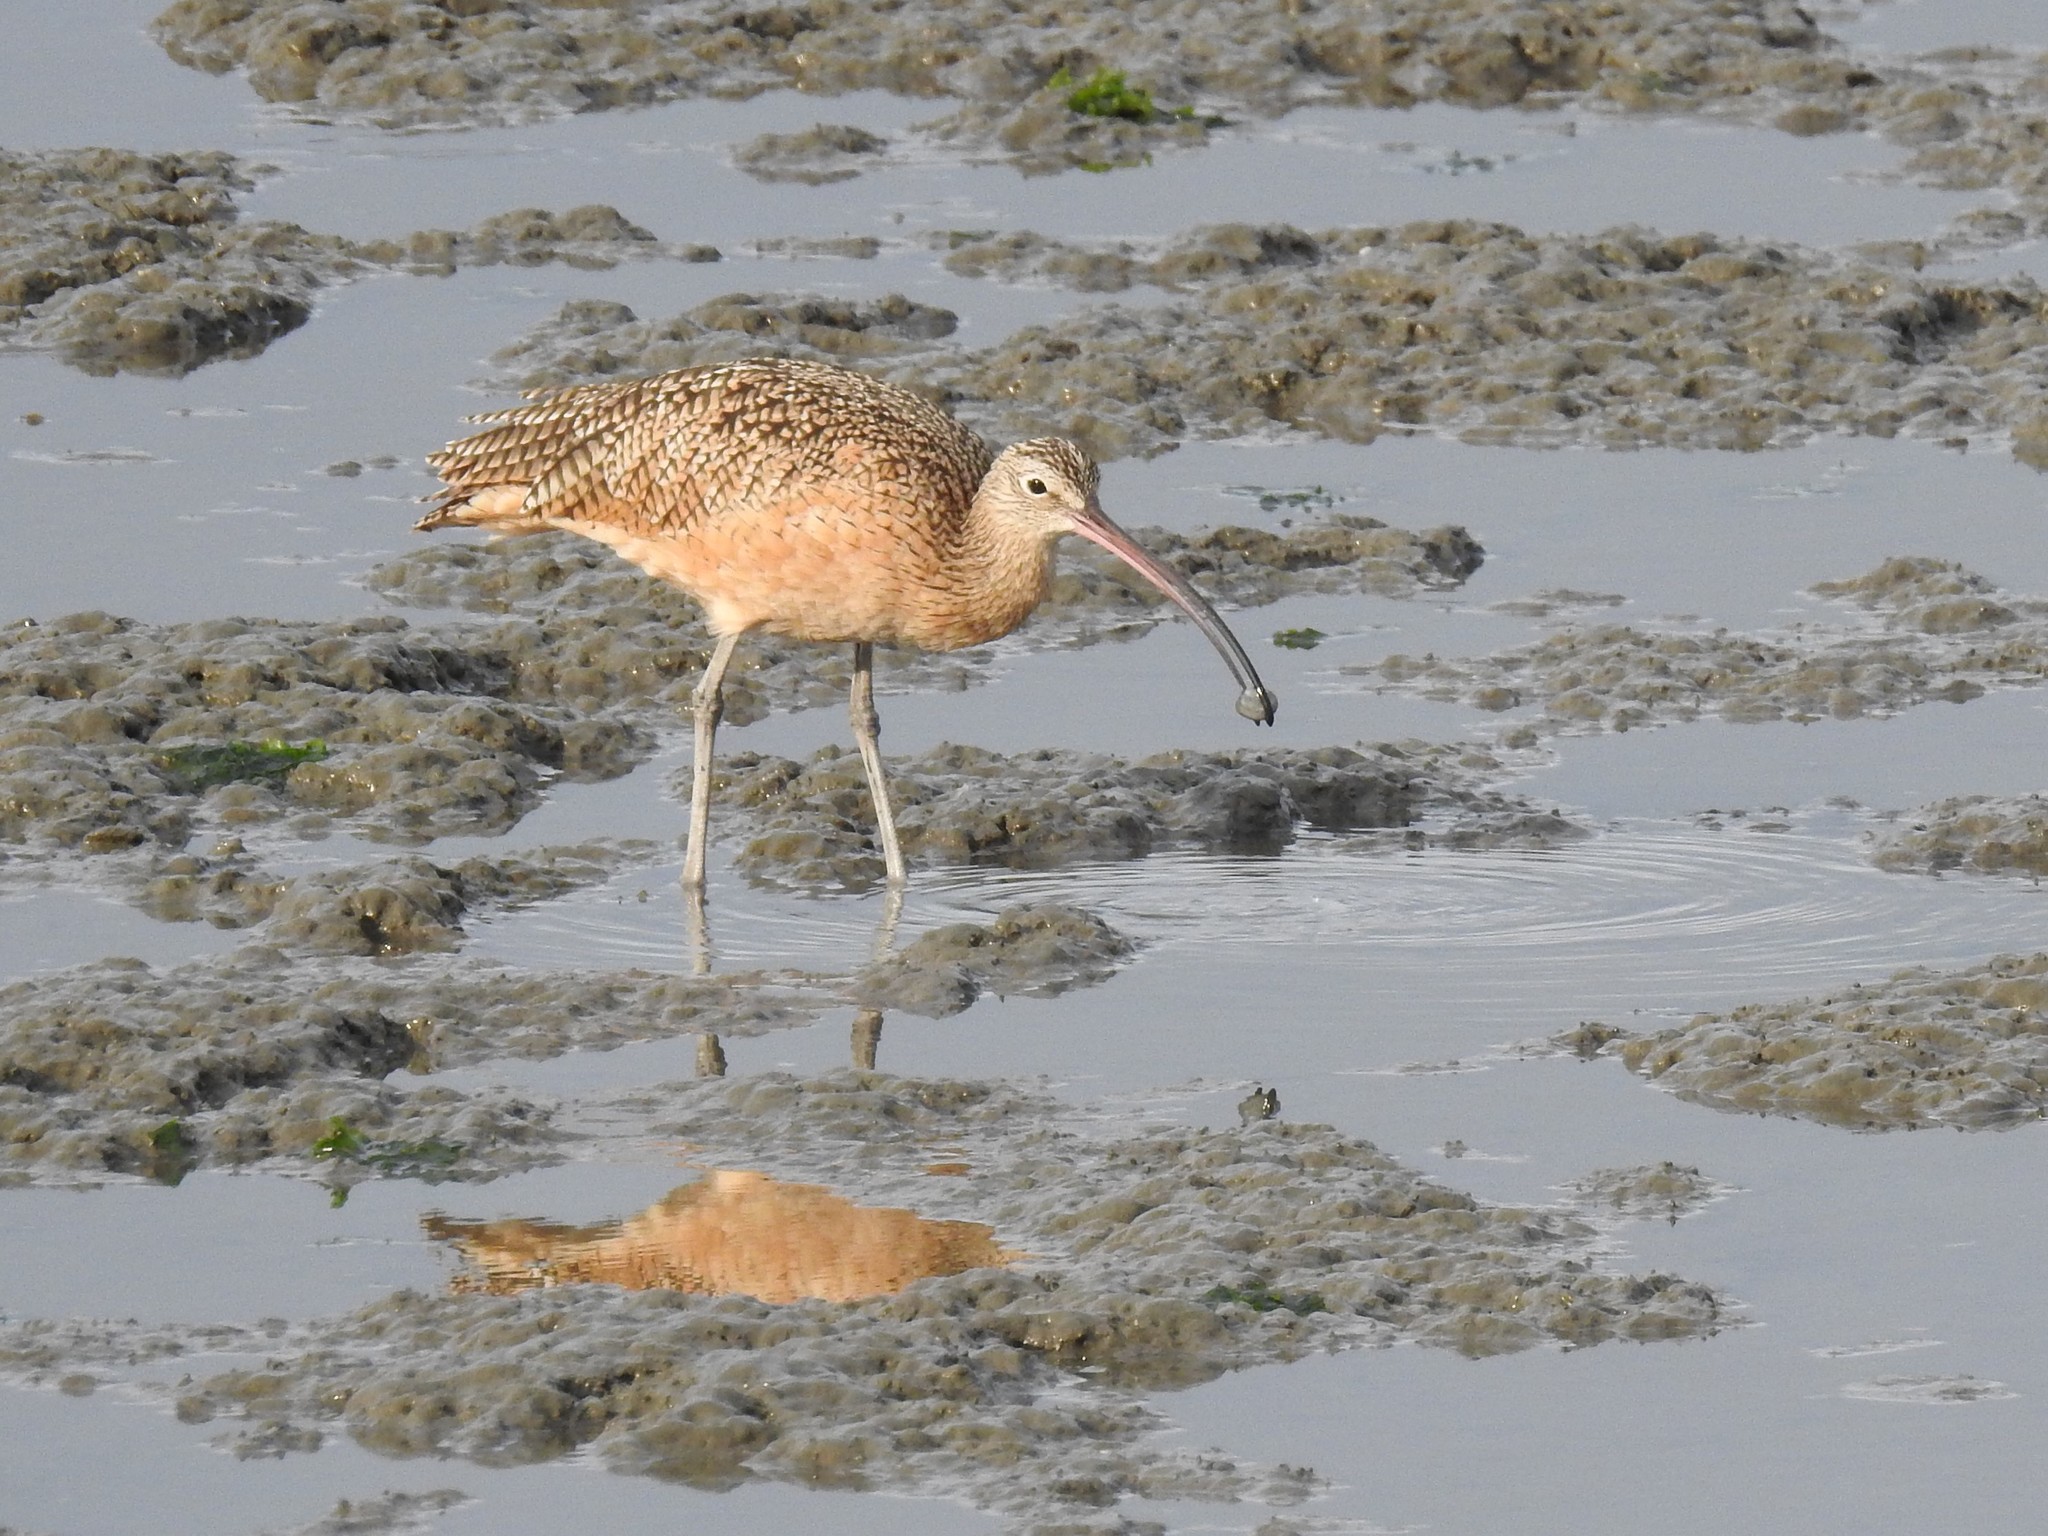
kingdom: Animalia
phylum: Chordata
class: Aves
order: Charadriiformes
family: Scolopacidae
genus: Numenius
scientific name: Numenius americanus
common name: Long-billed curlew
